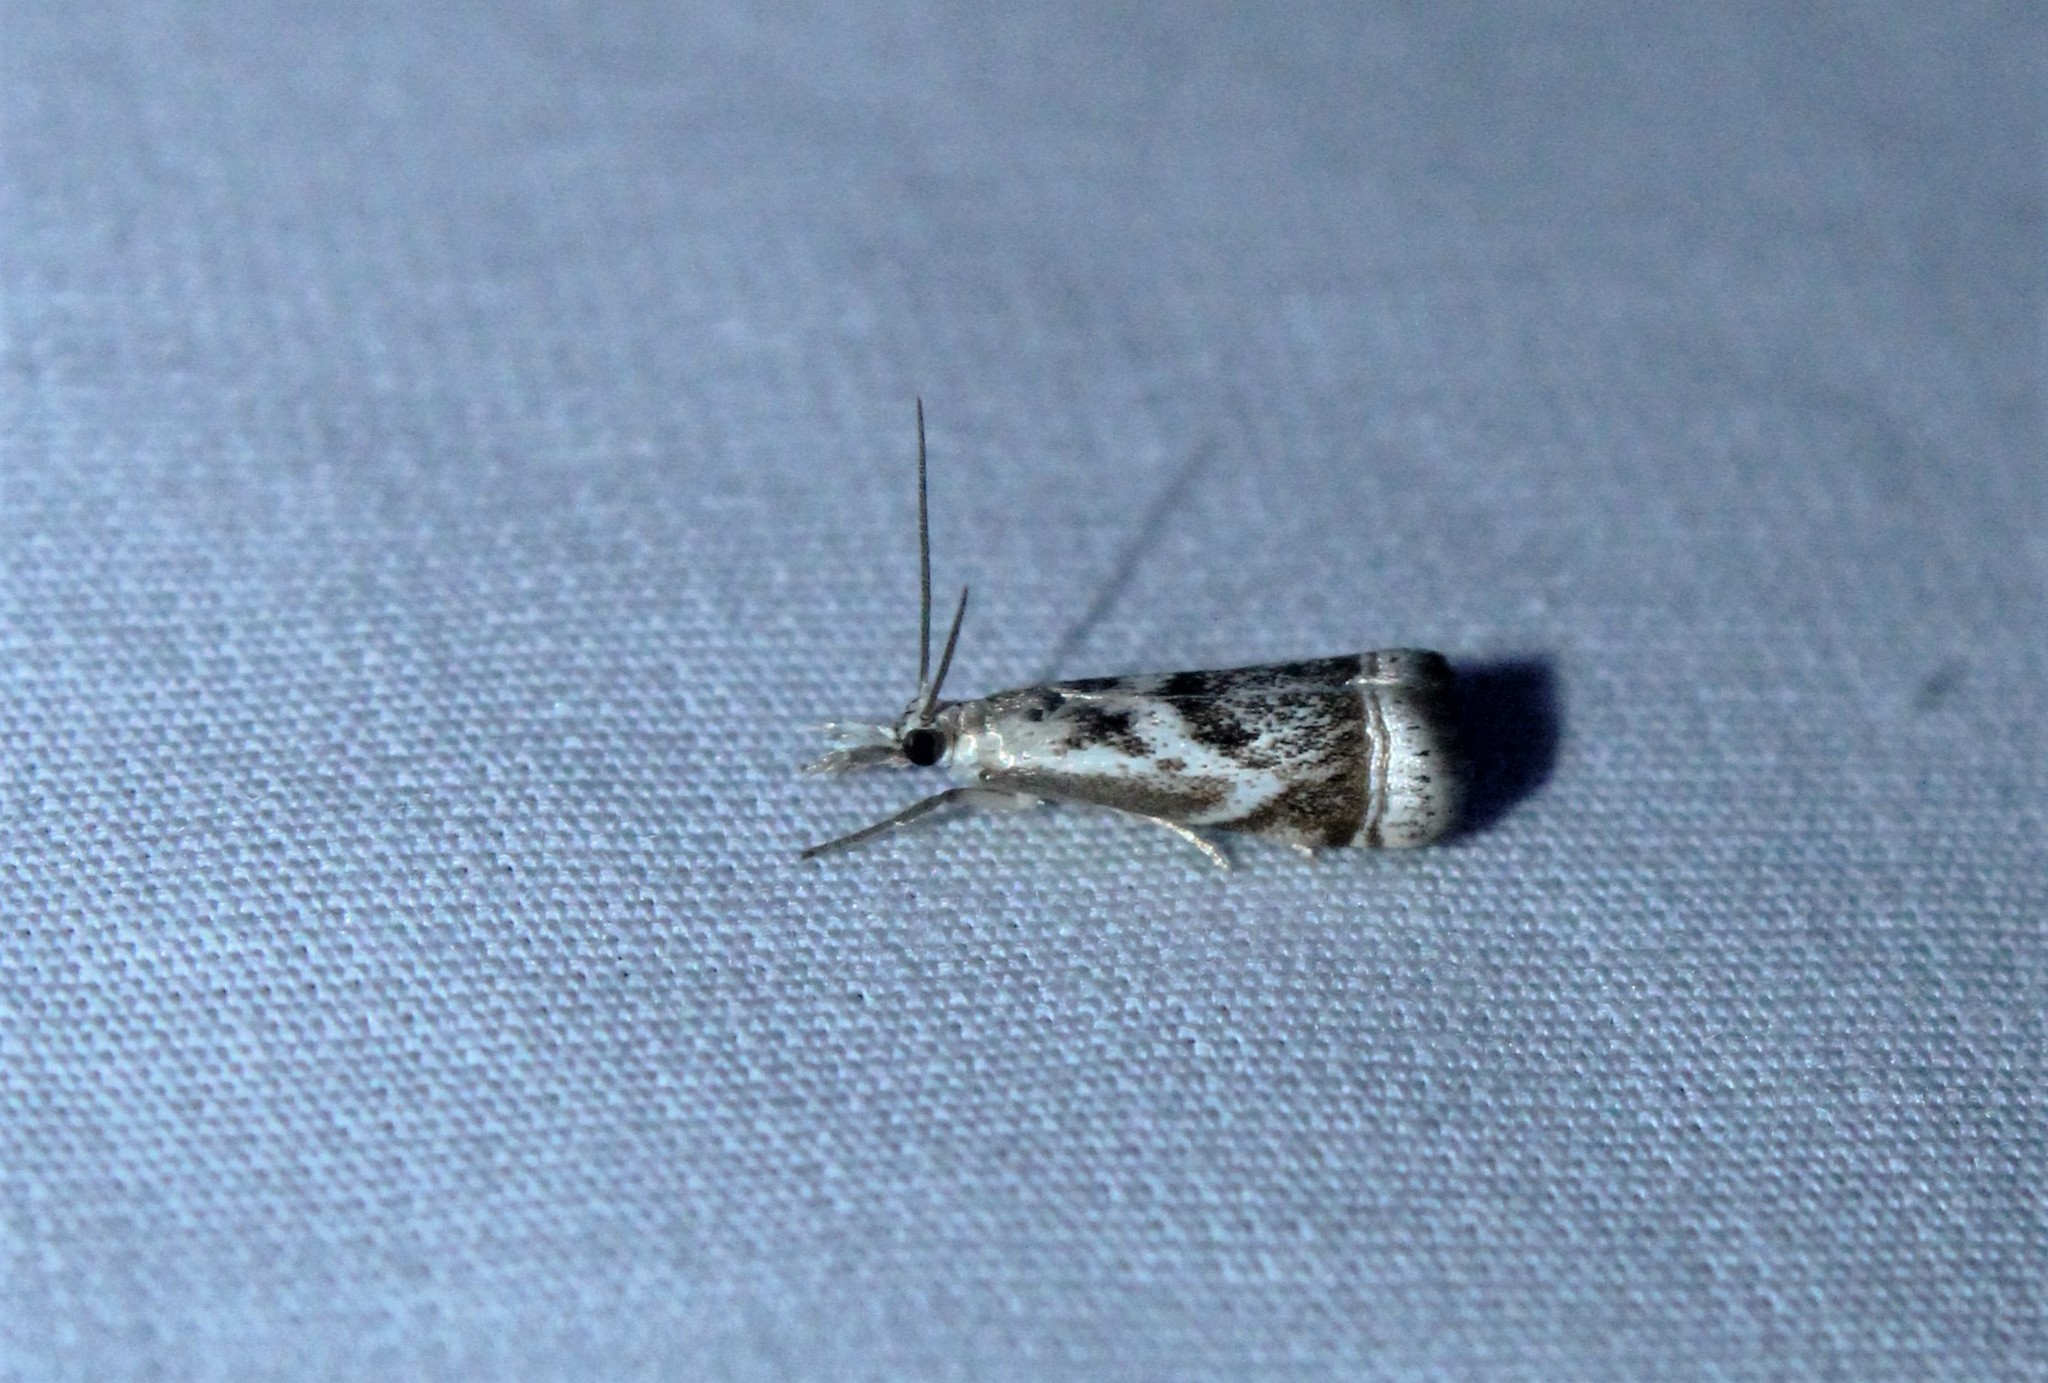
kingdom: Animalia
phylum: Arthropoda
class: Insecta
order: Lepidoptera
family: Crambidae
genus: Microcrambus
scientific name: Microcrambus elegans
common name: Elegant grass-veneer
